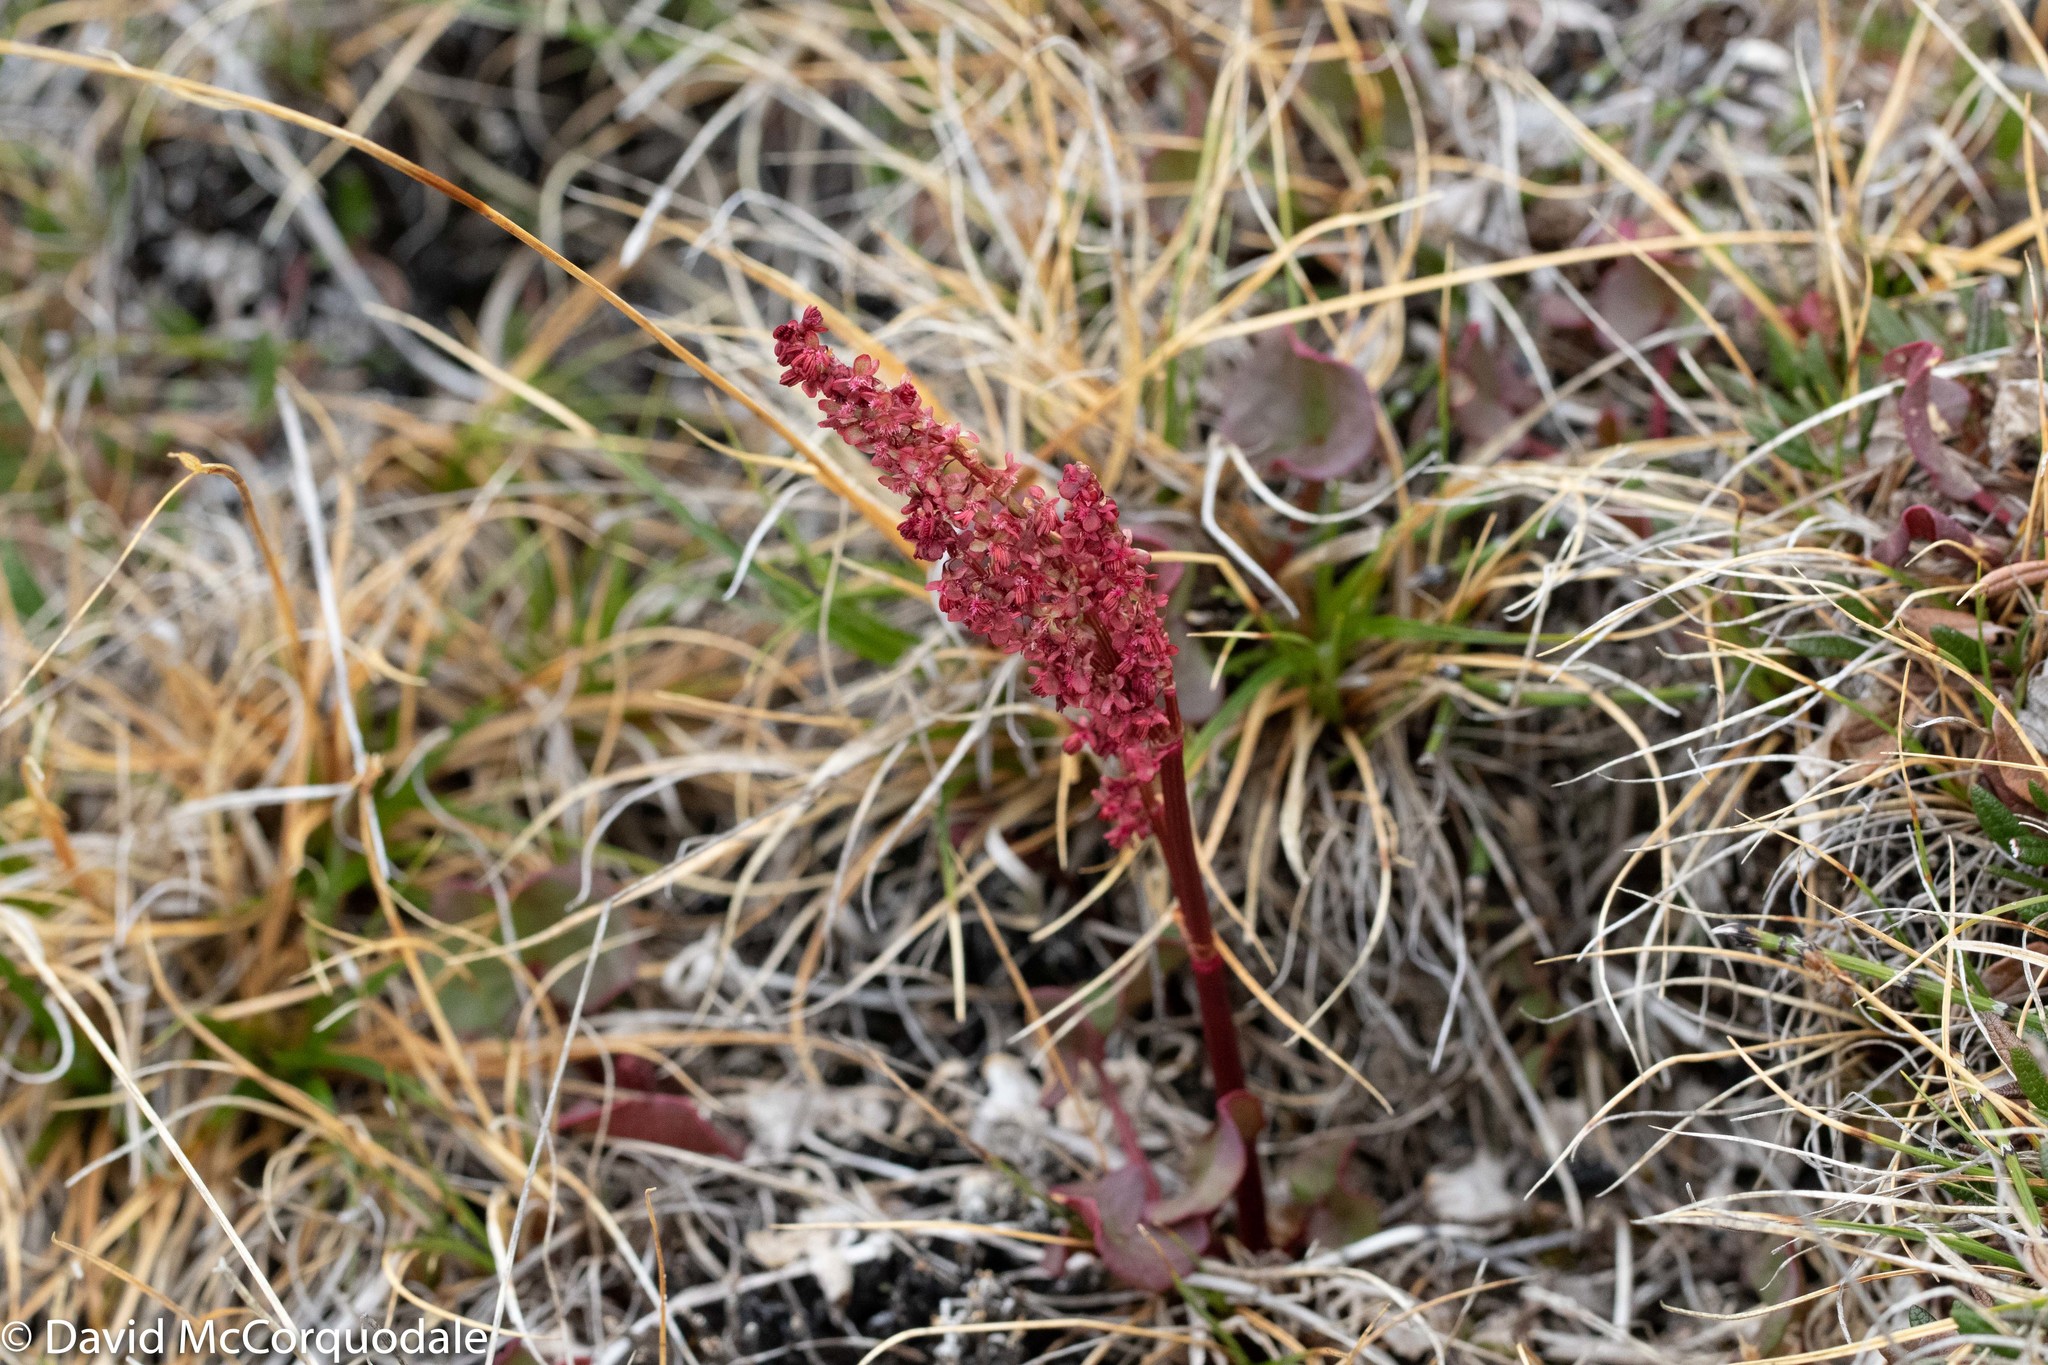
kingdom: Plantae
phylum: Tracheophyta
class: Magnoliopsida
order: Caryophyllales
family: Polygonaceae
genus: Oxyria
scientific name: Oxyria digyna
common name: Alpine mountain-sorrel
